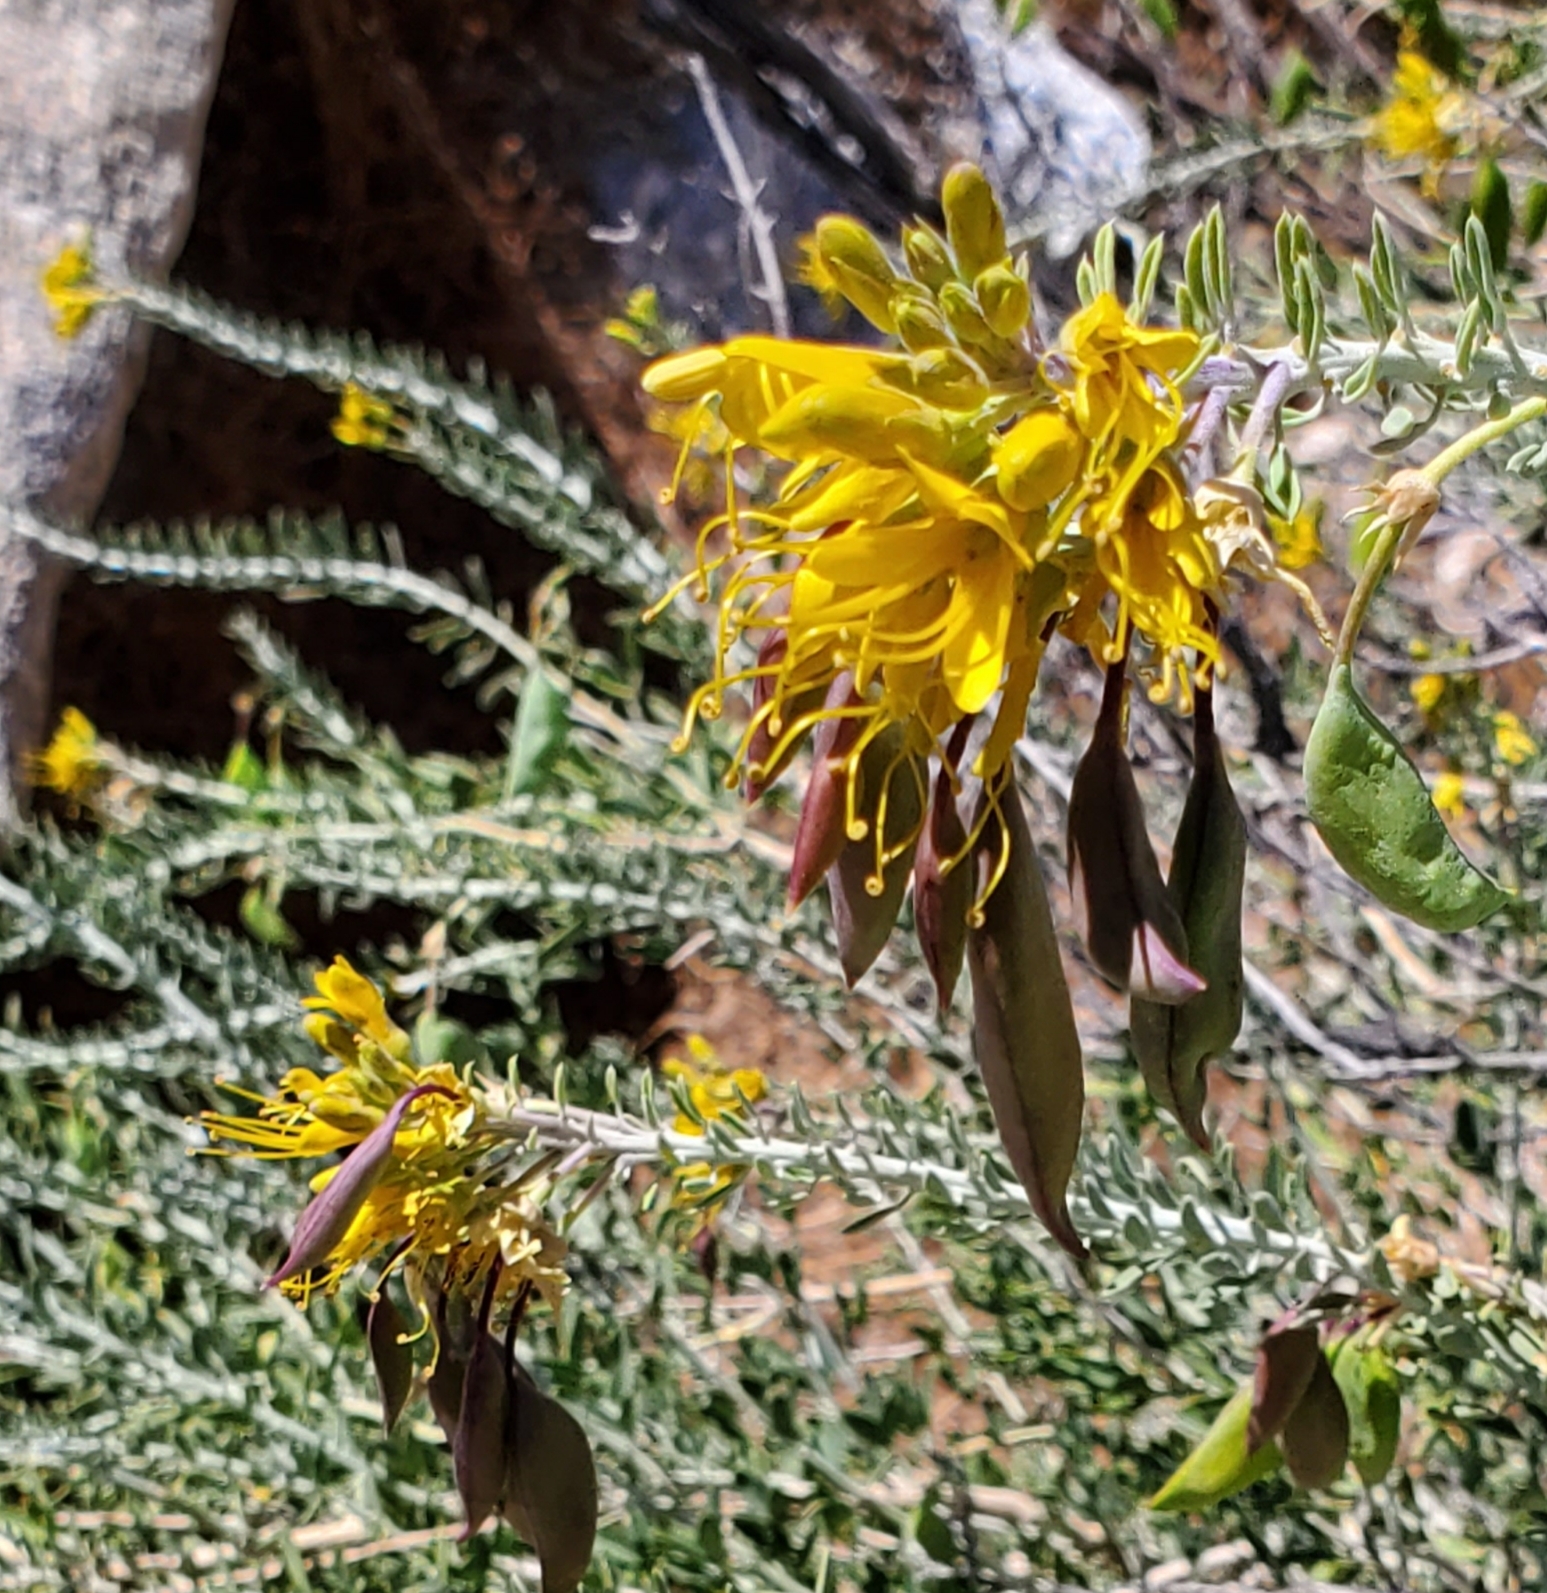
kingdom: Plantae
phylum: Tracheophyta
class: Magnoliopsida
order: Brassicales
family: Cleomaceae
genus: Cleomella
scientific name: Cleomella arborea
